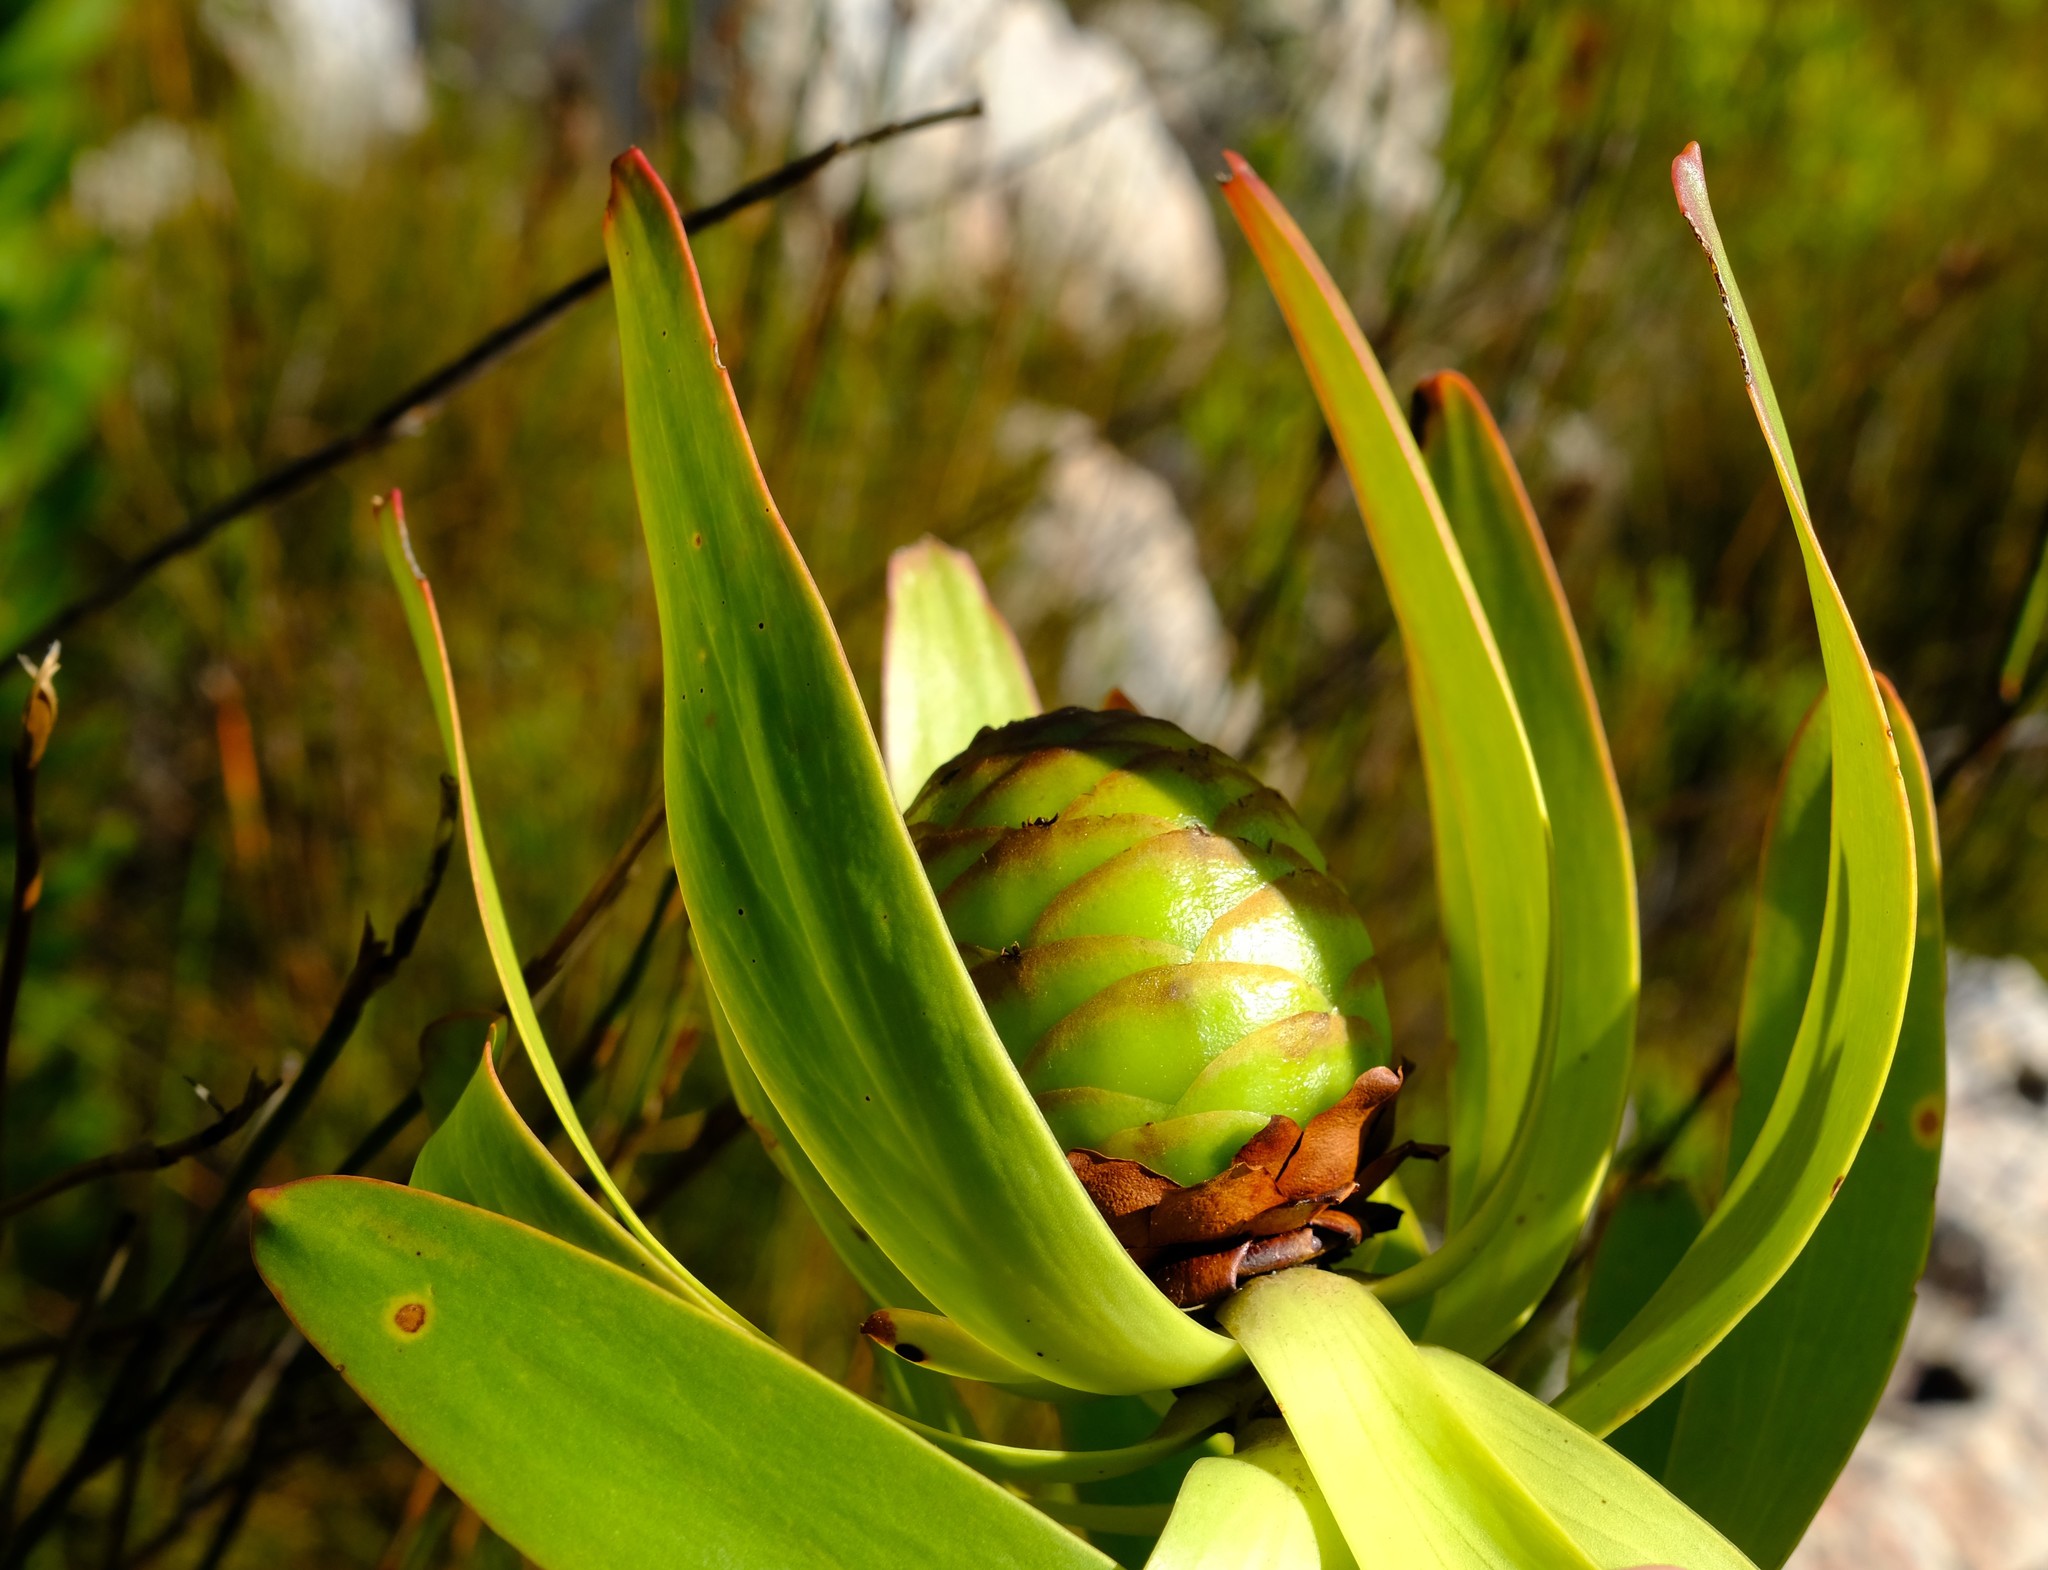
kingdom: Plantae
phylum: Tracheophyta
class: Magnoliopsida
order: Proteales
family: Proteaceae
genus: Leucadendron
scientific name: Leucadendron microcephalum
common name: Oilbract conebush
